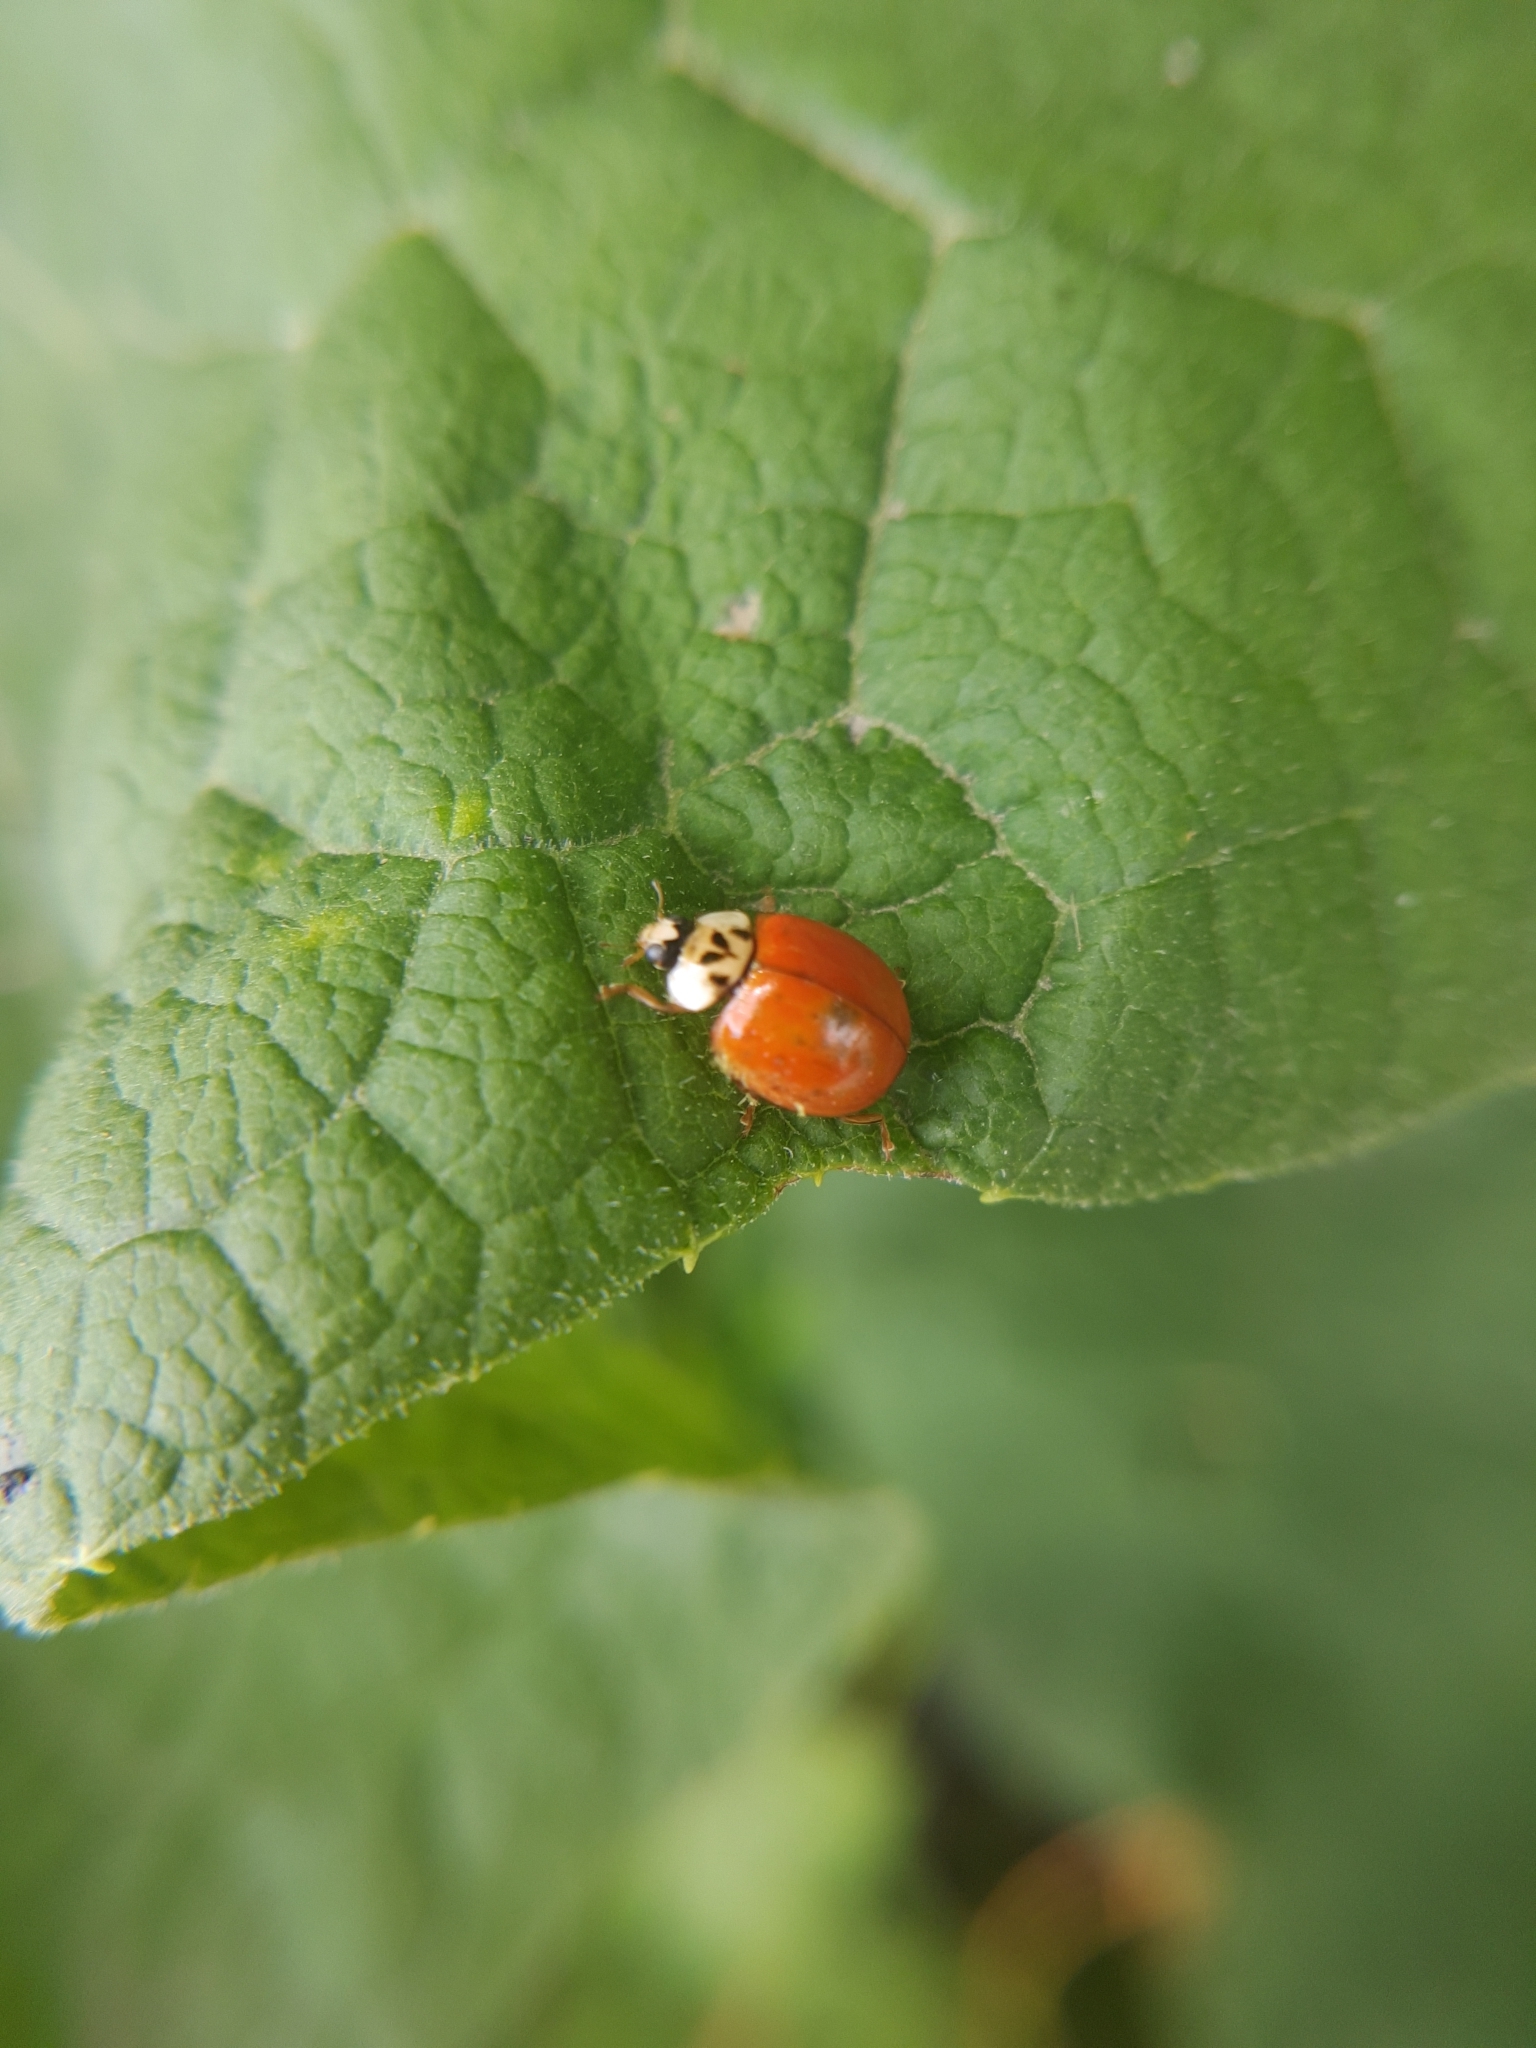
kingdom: Fungi
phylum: Ascomycota
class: Laboulbeniomycetes
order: Laboulbeniales
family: Laboulbeniaceae
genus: Hesperomyces
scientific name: Hesperomyces harmoniae
